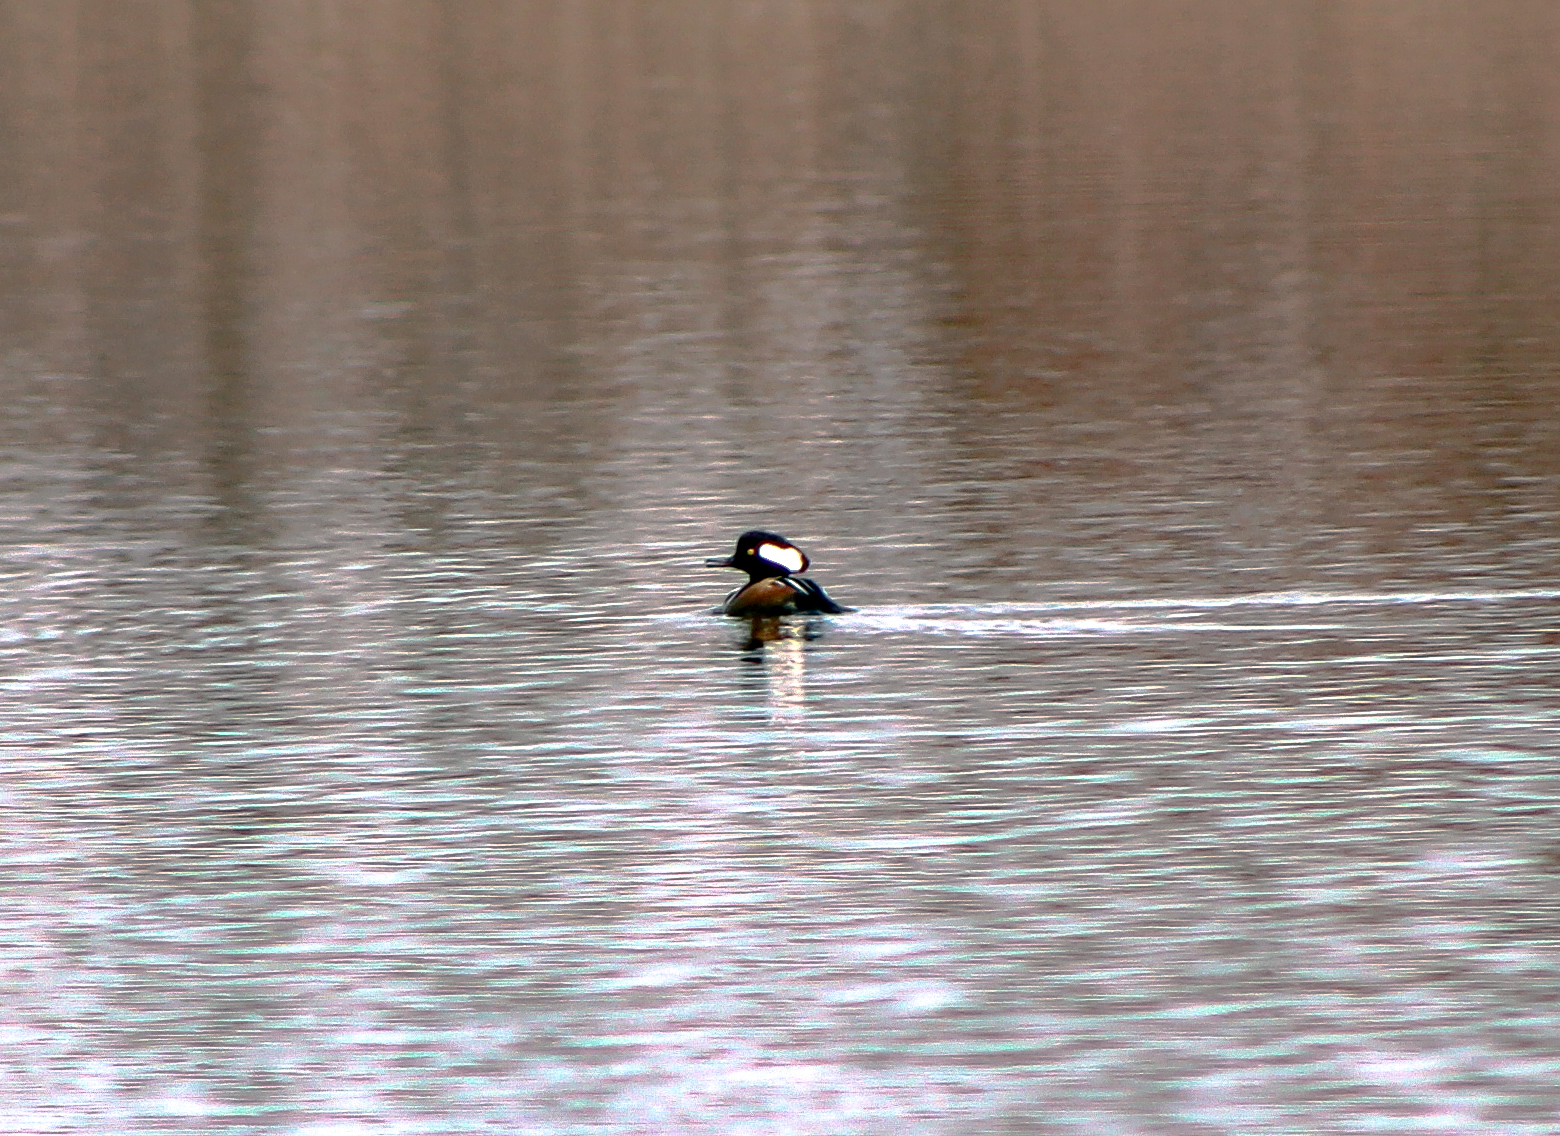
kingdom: Animalia
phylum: Chordata
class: Aves
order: Anseriformes
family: Anatidae
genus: Lophodytes
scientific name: Lophodytes cucullatus
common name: Hooded merganser
